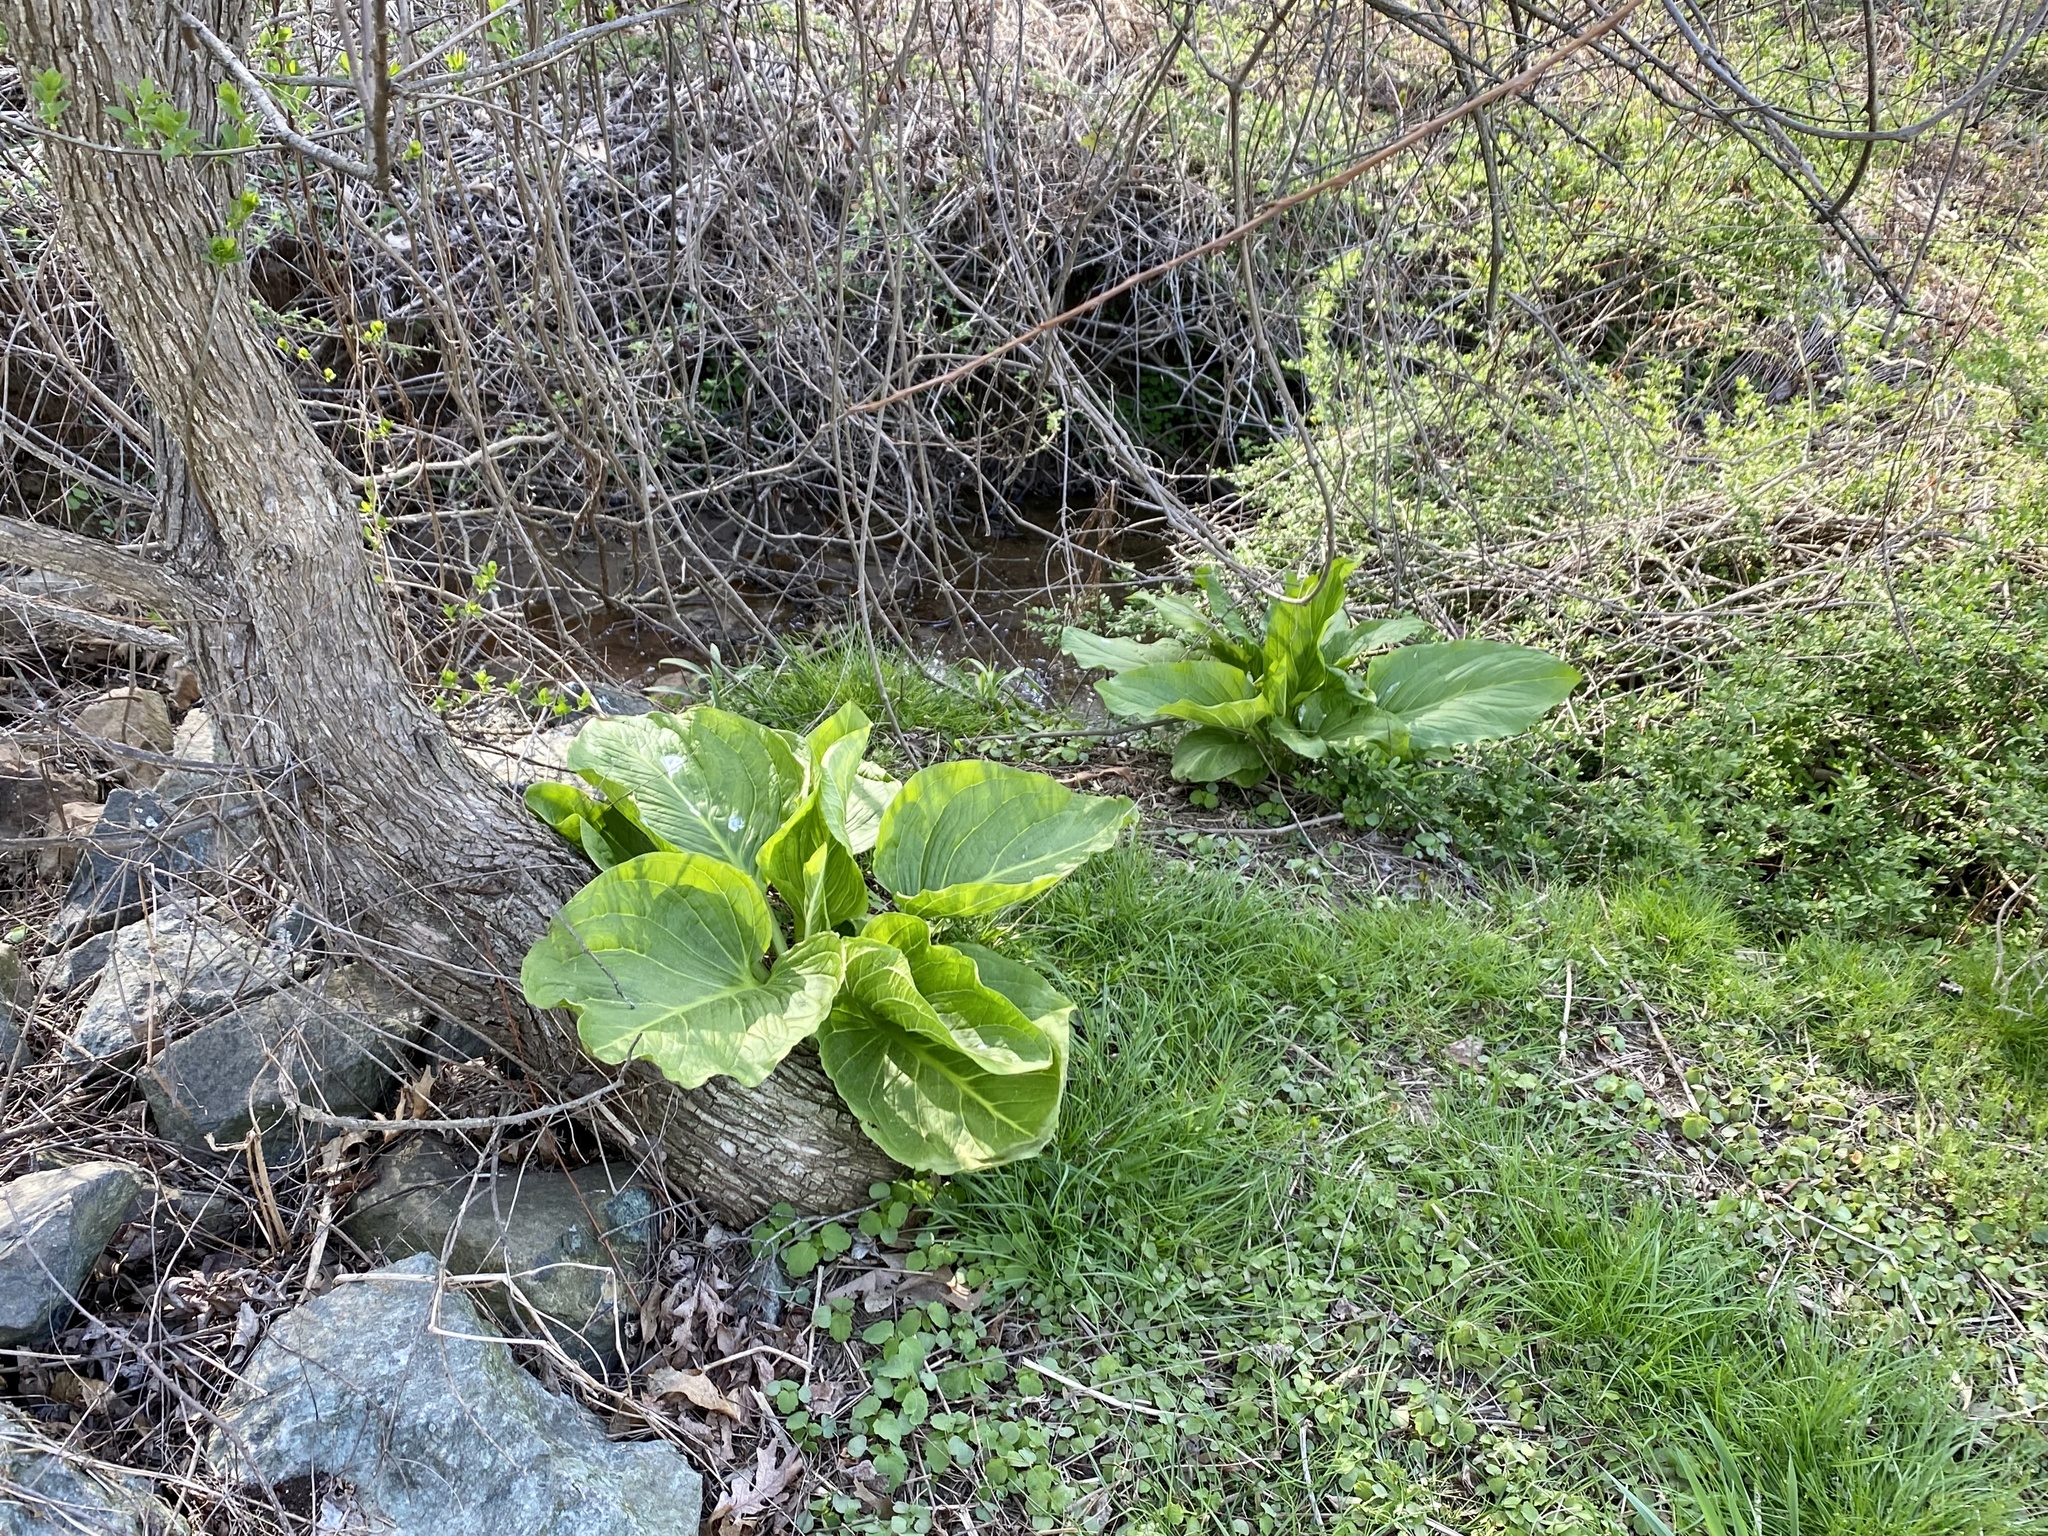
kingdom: Plantae
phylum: Tracheophyta
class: Liliopsida
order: Alismatales
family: Araceae
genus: Symplocarpus
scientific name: Symplocarpus foetidus
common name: Eastern skunk cabbage
